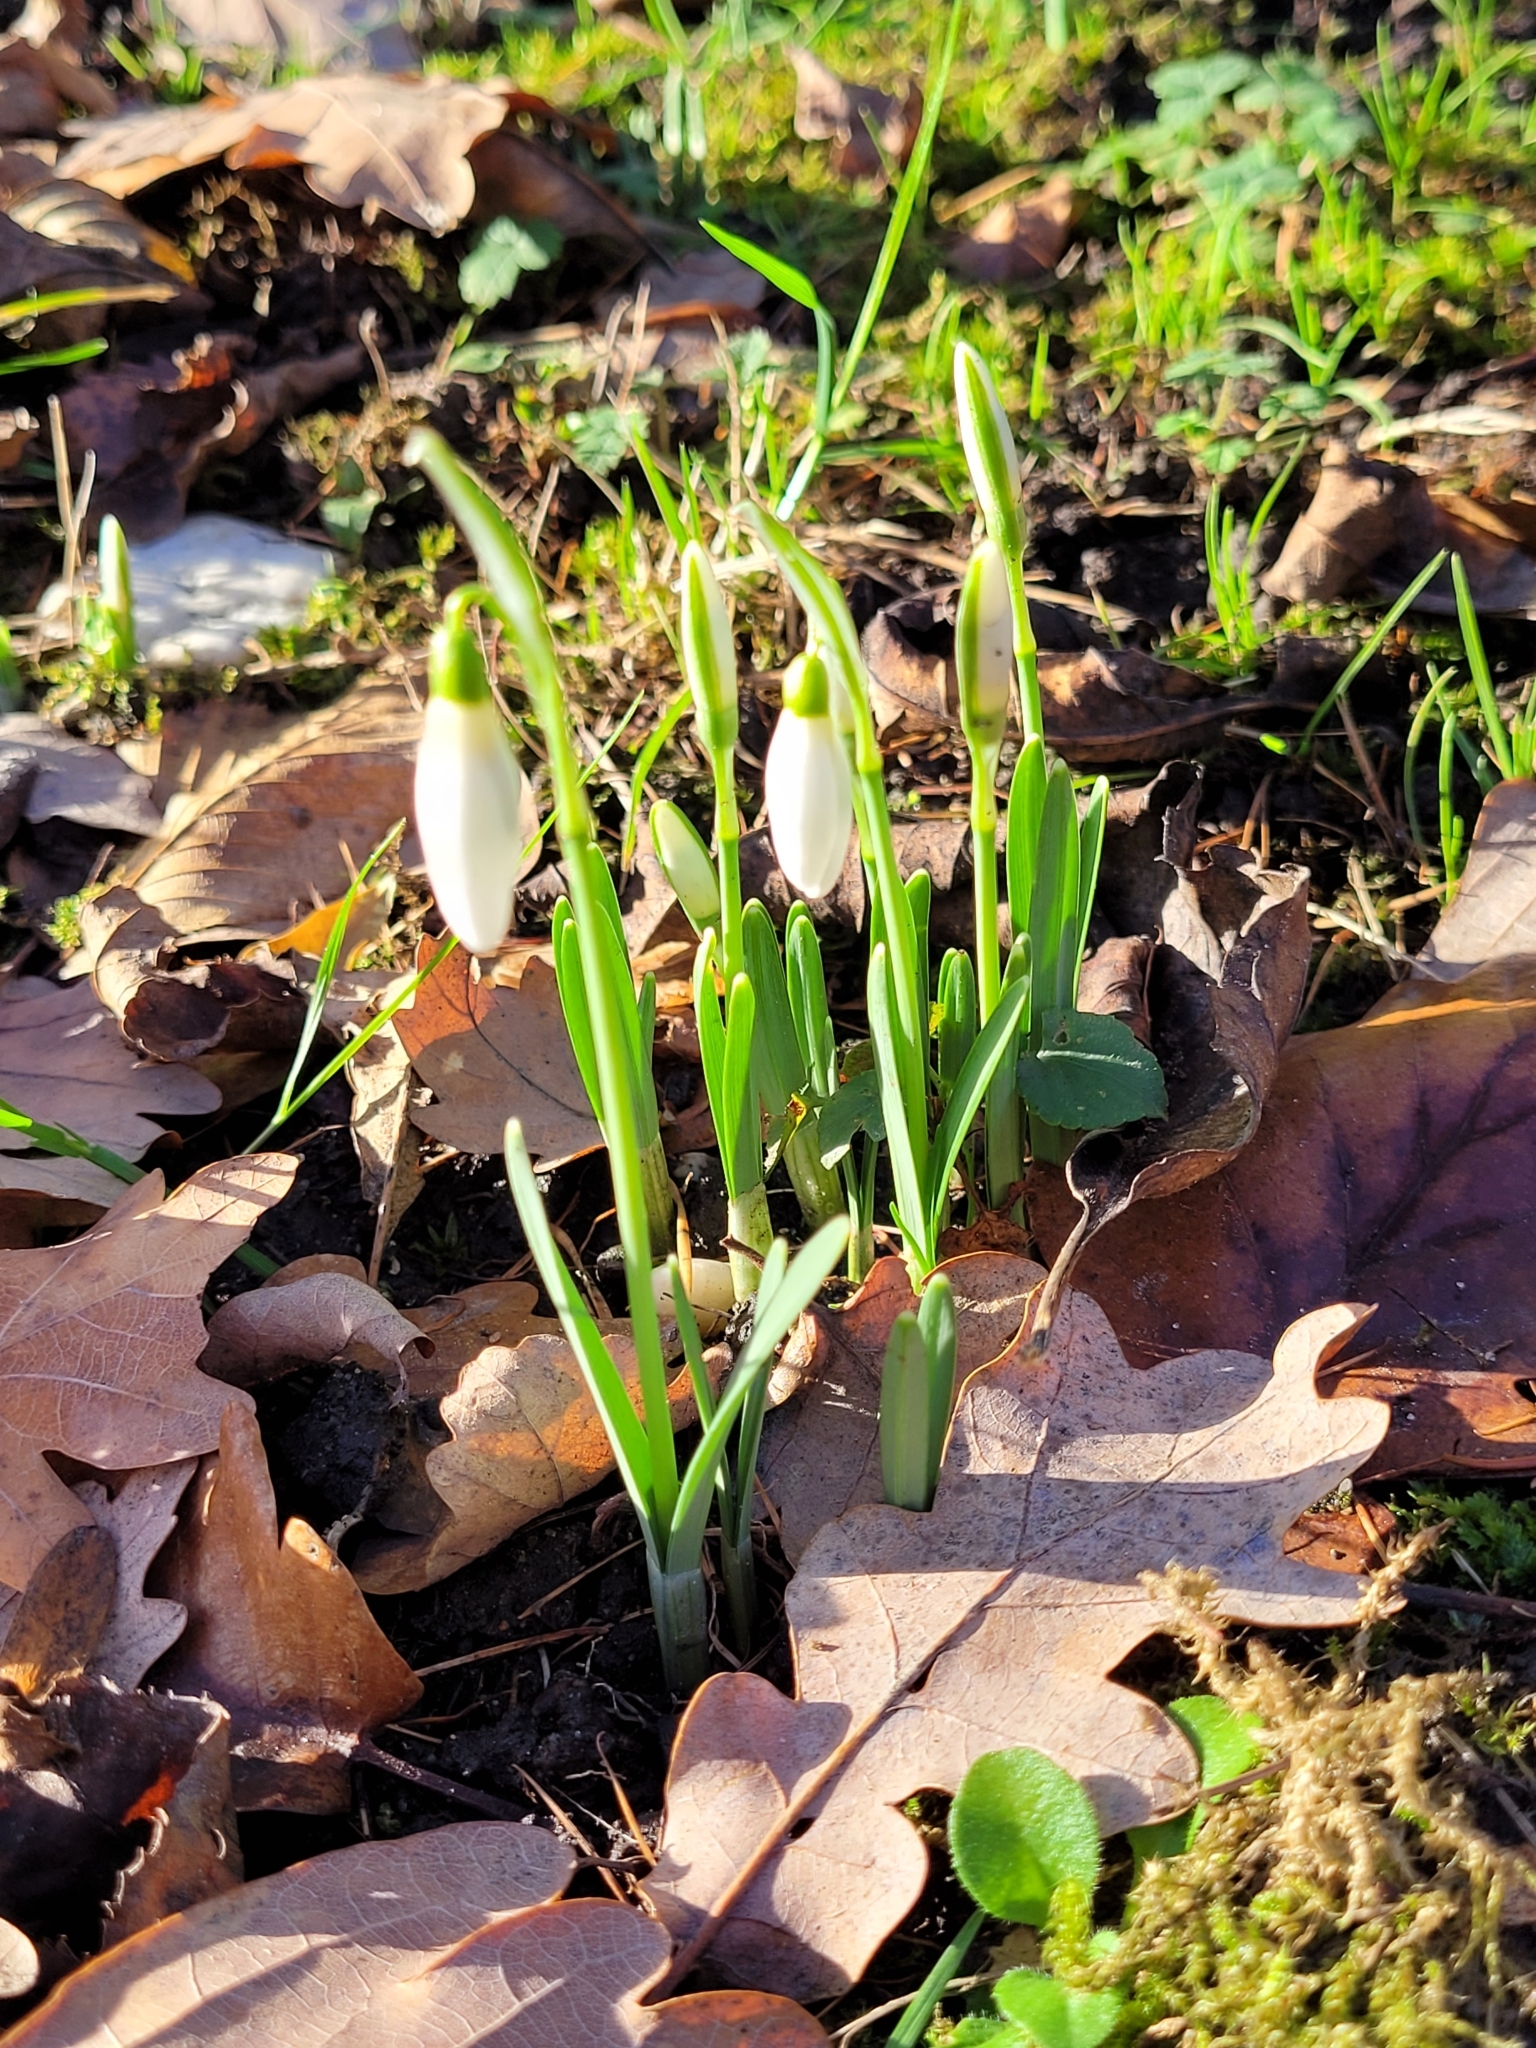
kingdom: Plantae
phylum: Tracheophyta
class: Liliopsida
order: Asparagales
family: Amaryllidaceae
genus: Galanthus
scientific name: Galanthus nivalis
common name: Snowdrop
